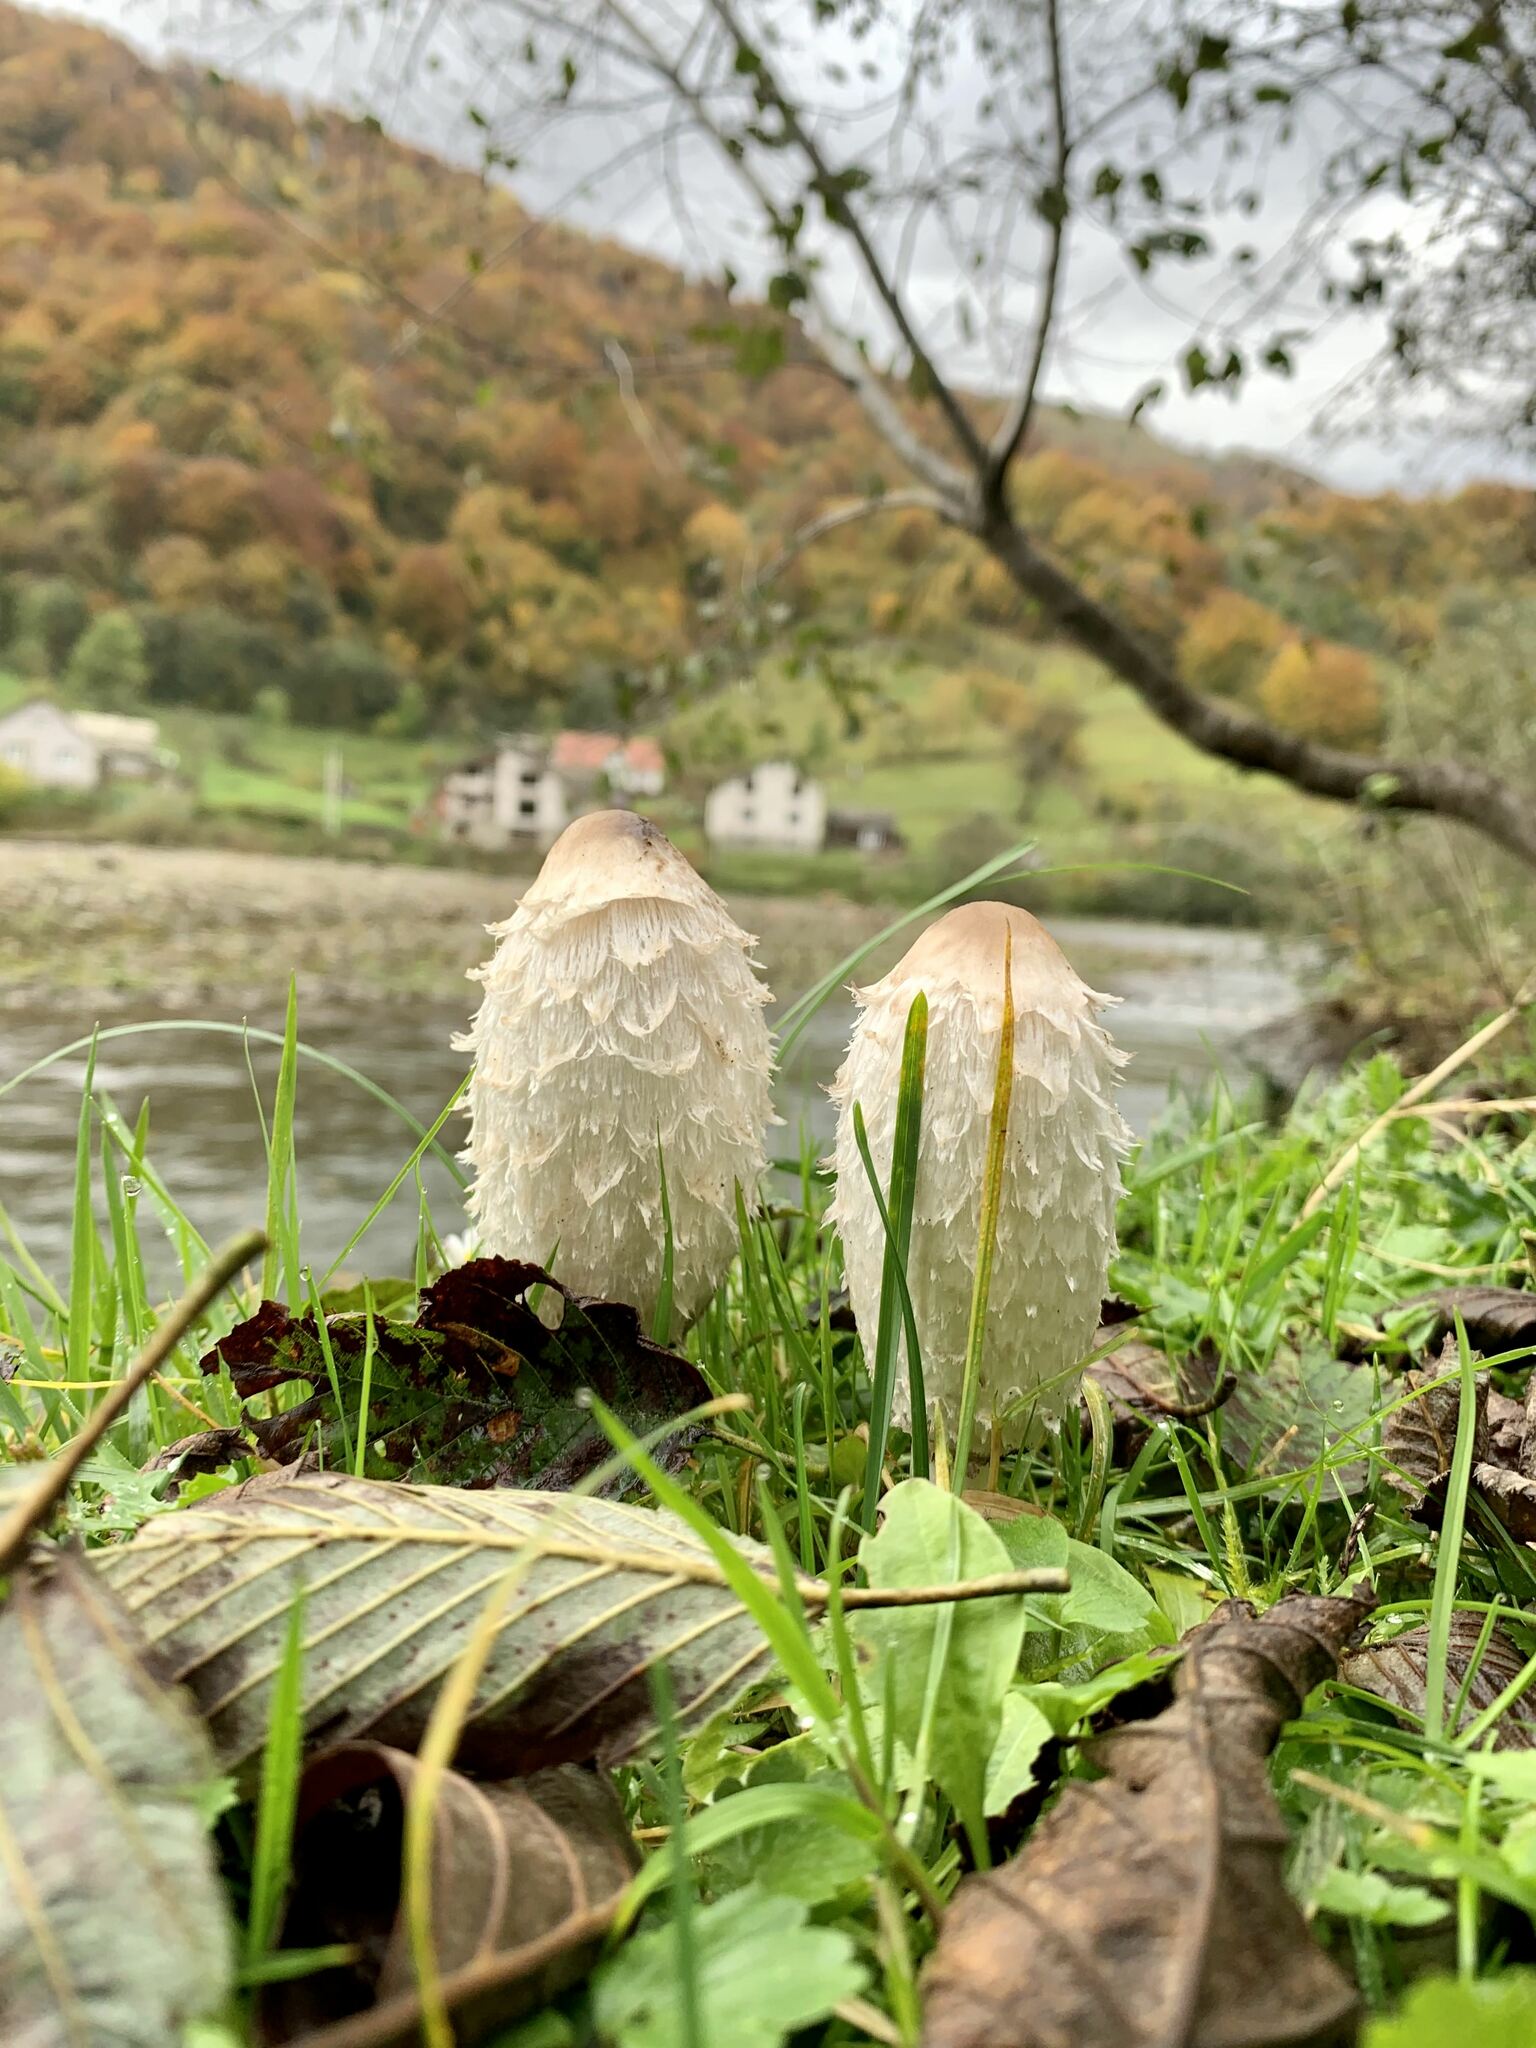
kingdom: Fungi
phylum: Basidiomycota
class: Agaricomycetes
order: Agaricales
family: Agaricaceae
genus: Coprinus
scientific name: Coprinus comatus
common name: Lawyer's wig
